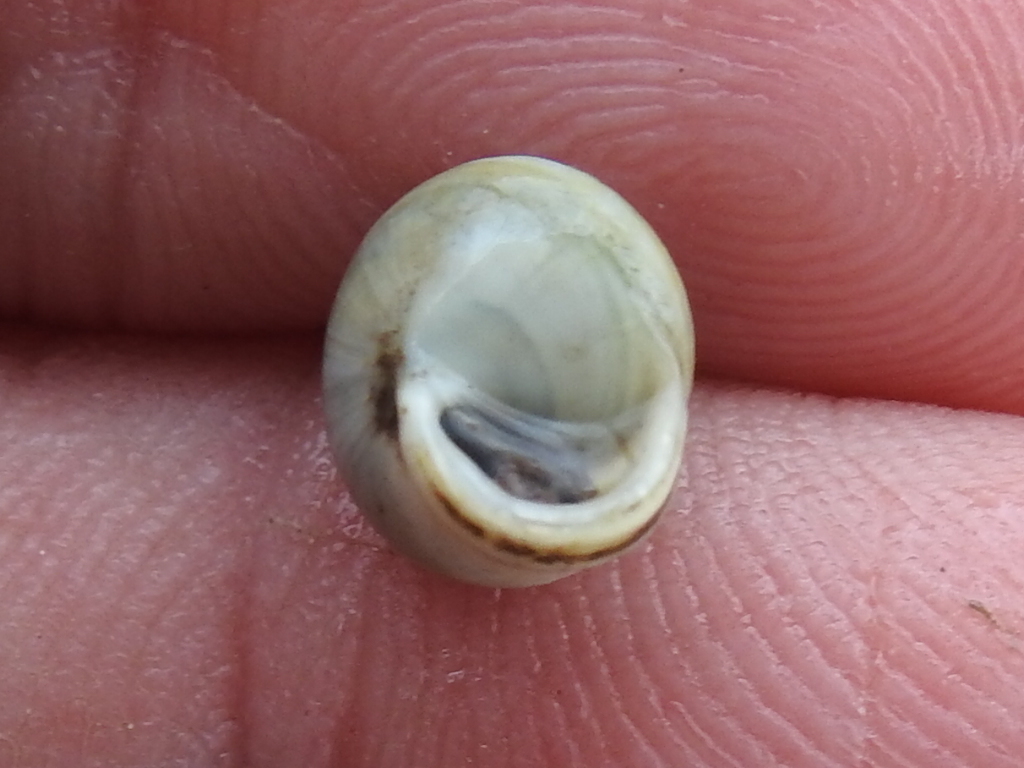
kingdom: Animalia
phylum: Mollusca
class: Gastropoda
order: Cycloneritida
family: Helicinidae
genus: Helicina
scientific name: Helicina orbiculata
